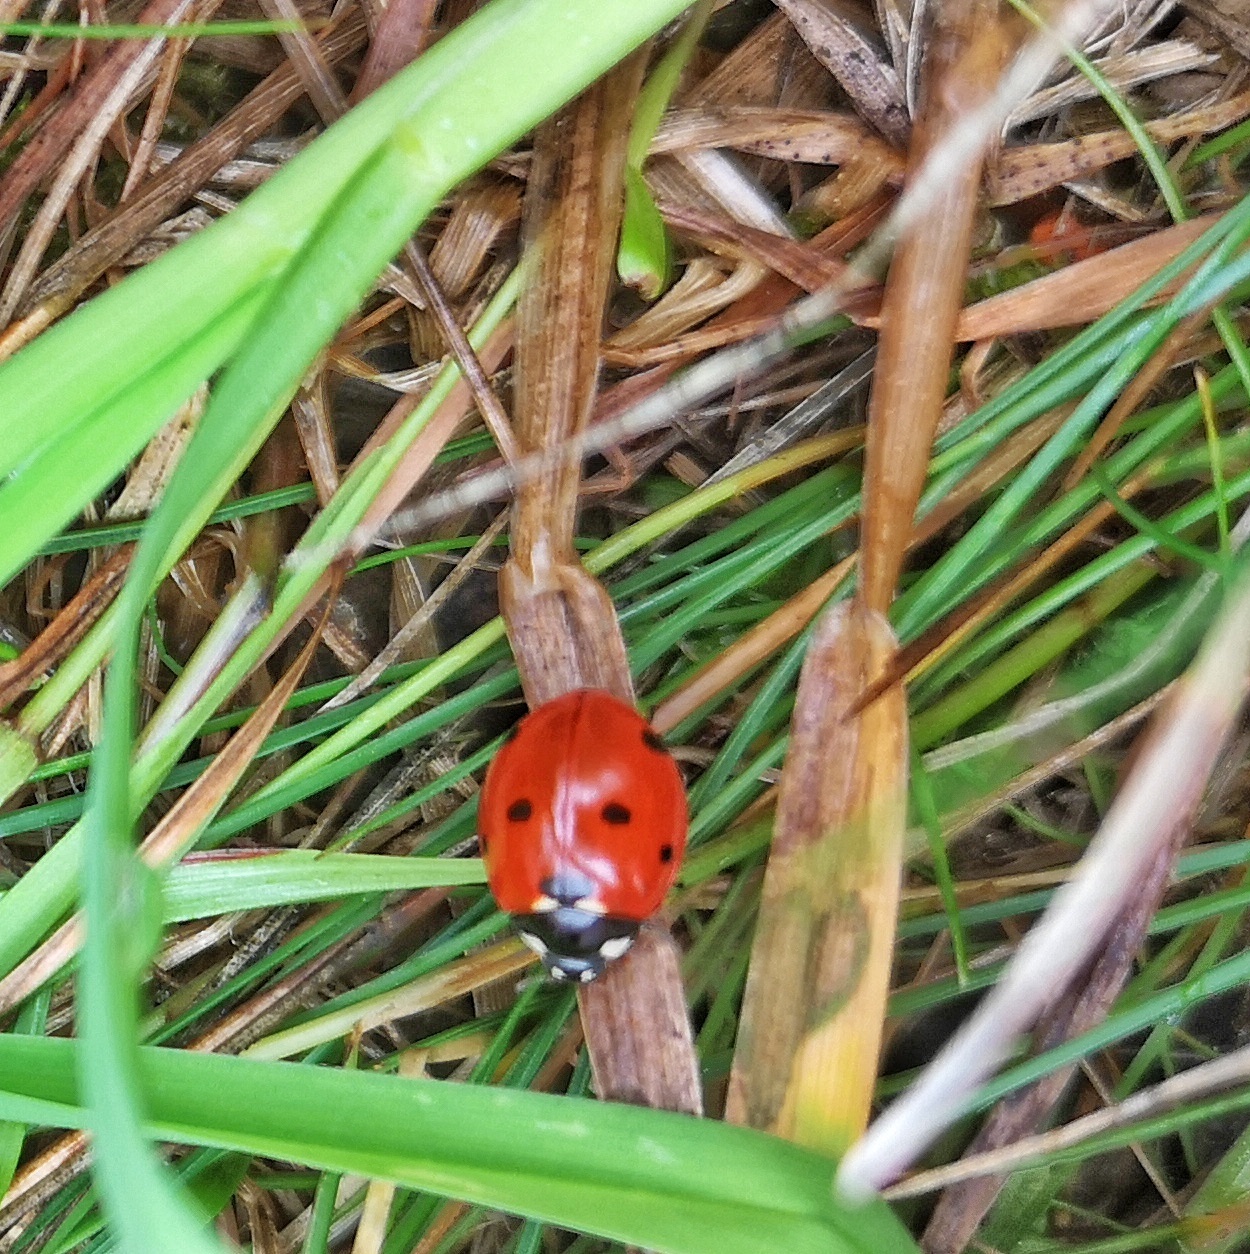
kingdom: Animalia
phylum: Arthropoda
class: Insecta
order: Coleoptera
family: Coccinellidae
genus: Coccinella
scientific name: Coccinella septempunctata
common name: Sevenspotted lady beetle
